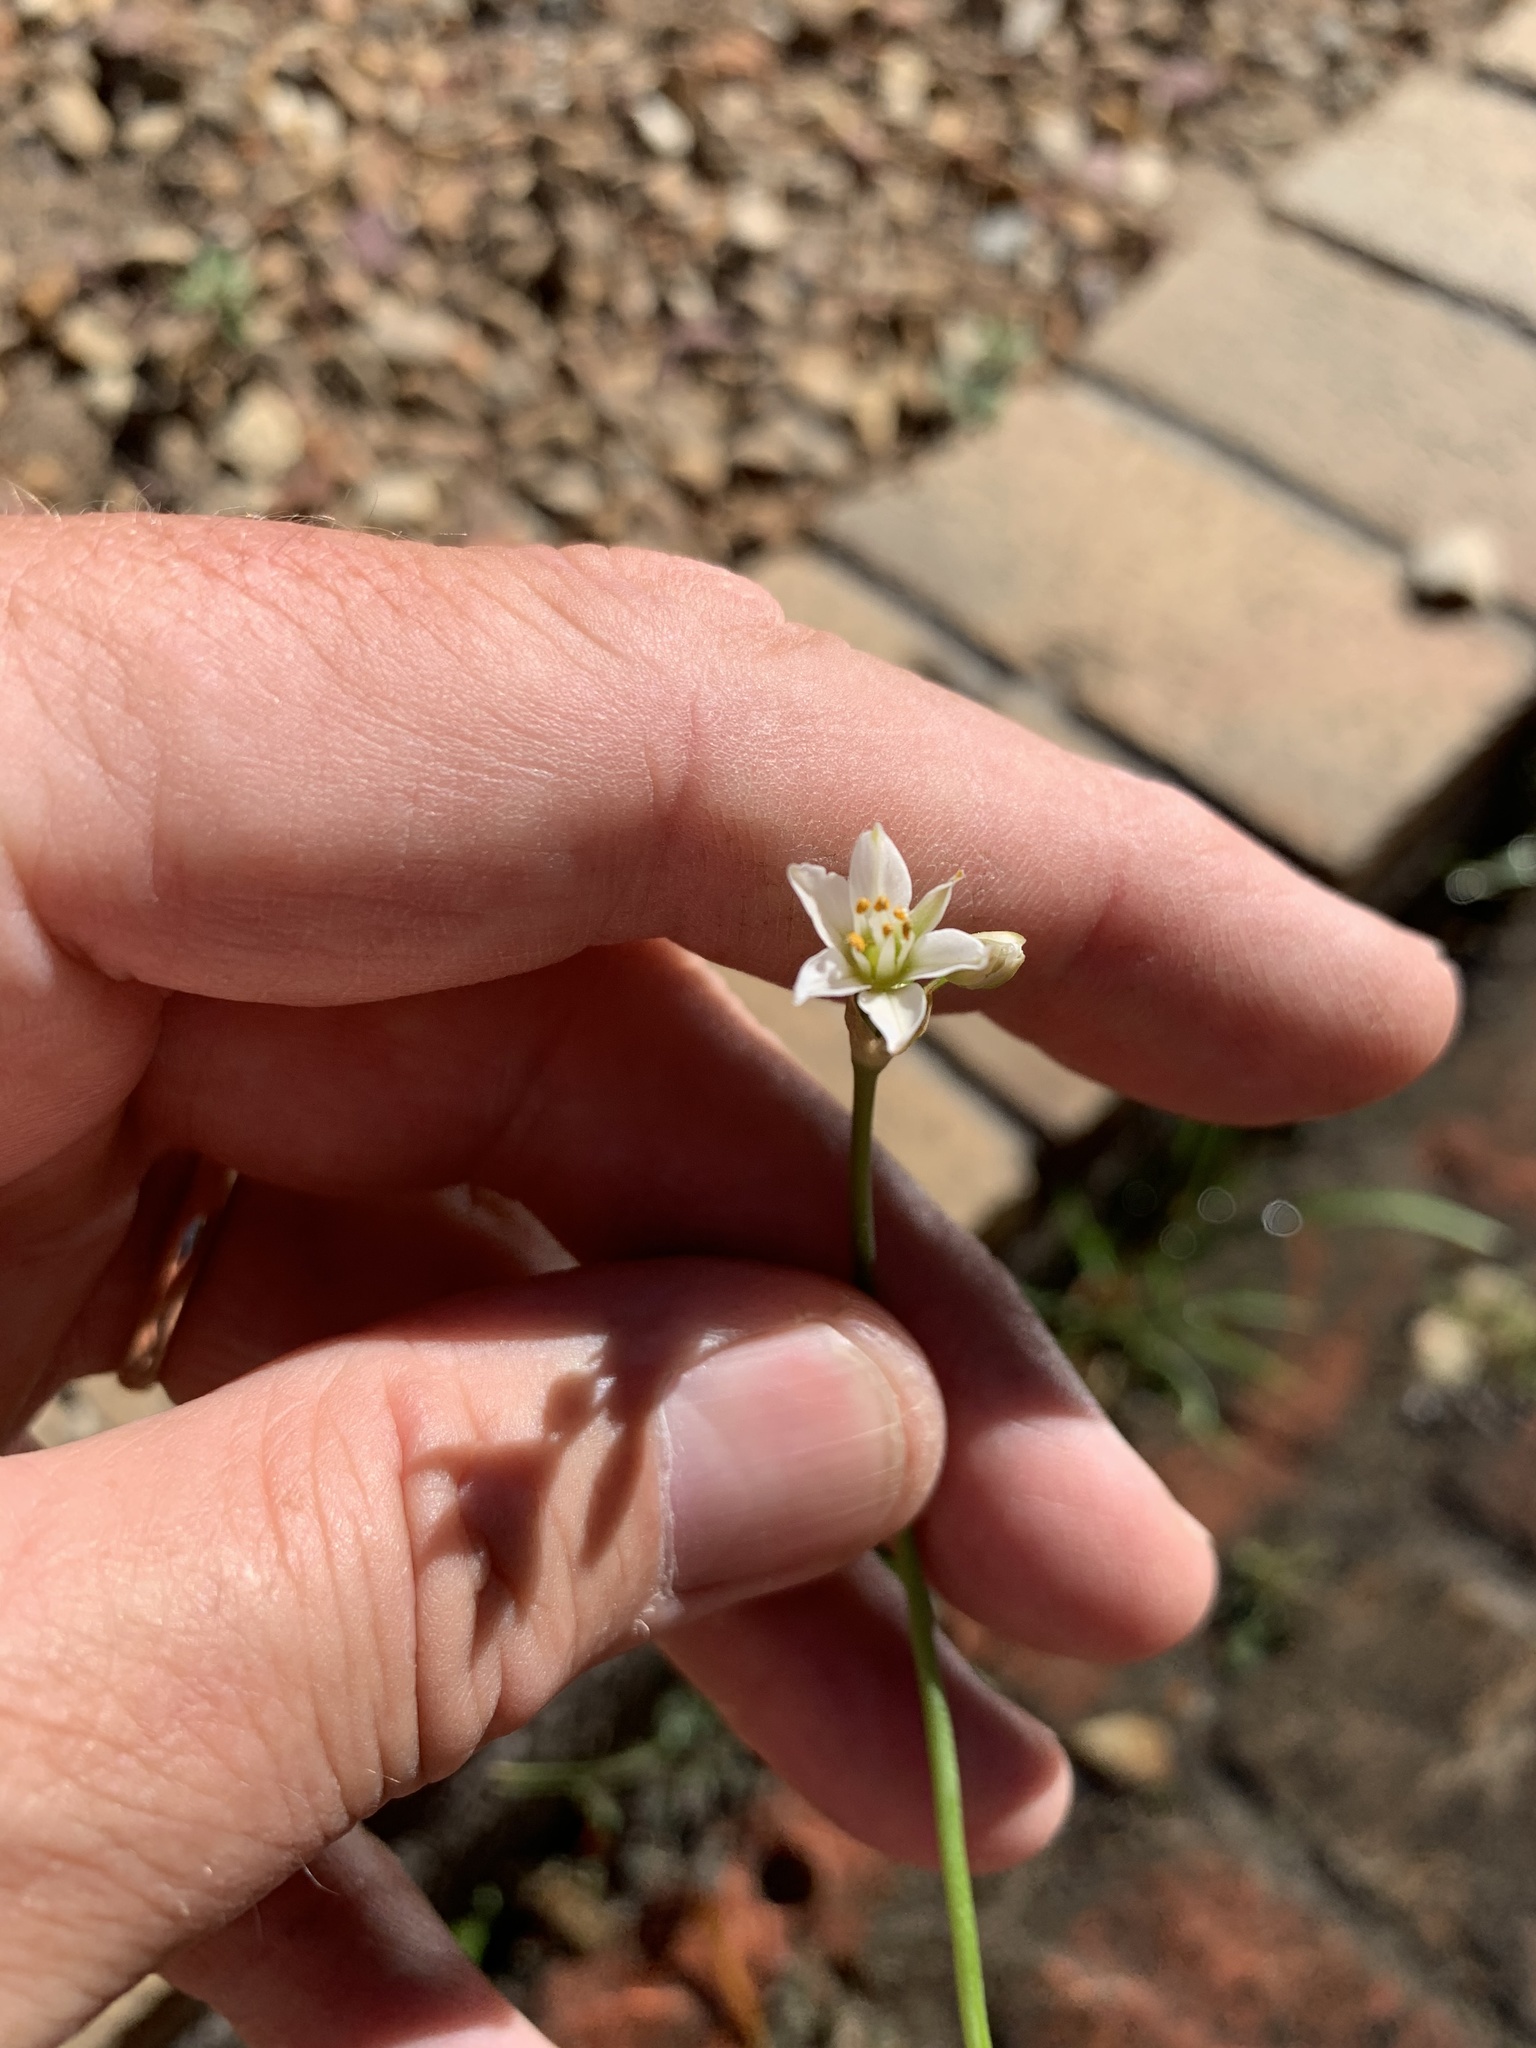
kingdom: Plantae
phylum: Tracheophyta
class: Liliopsida
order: Asparagales
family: Amaryllidaceae
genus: Nothoscordum
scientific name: Nothoscordum gracile
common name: Slender false garlic
